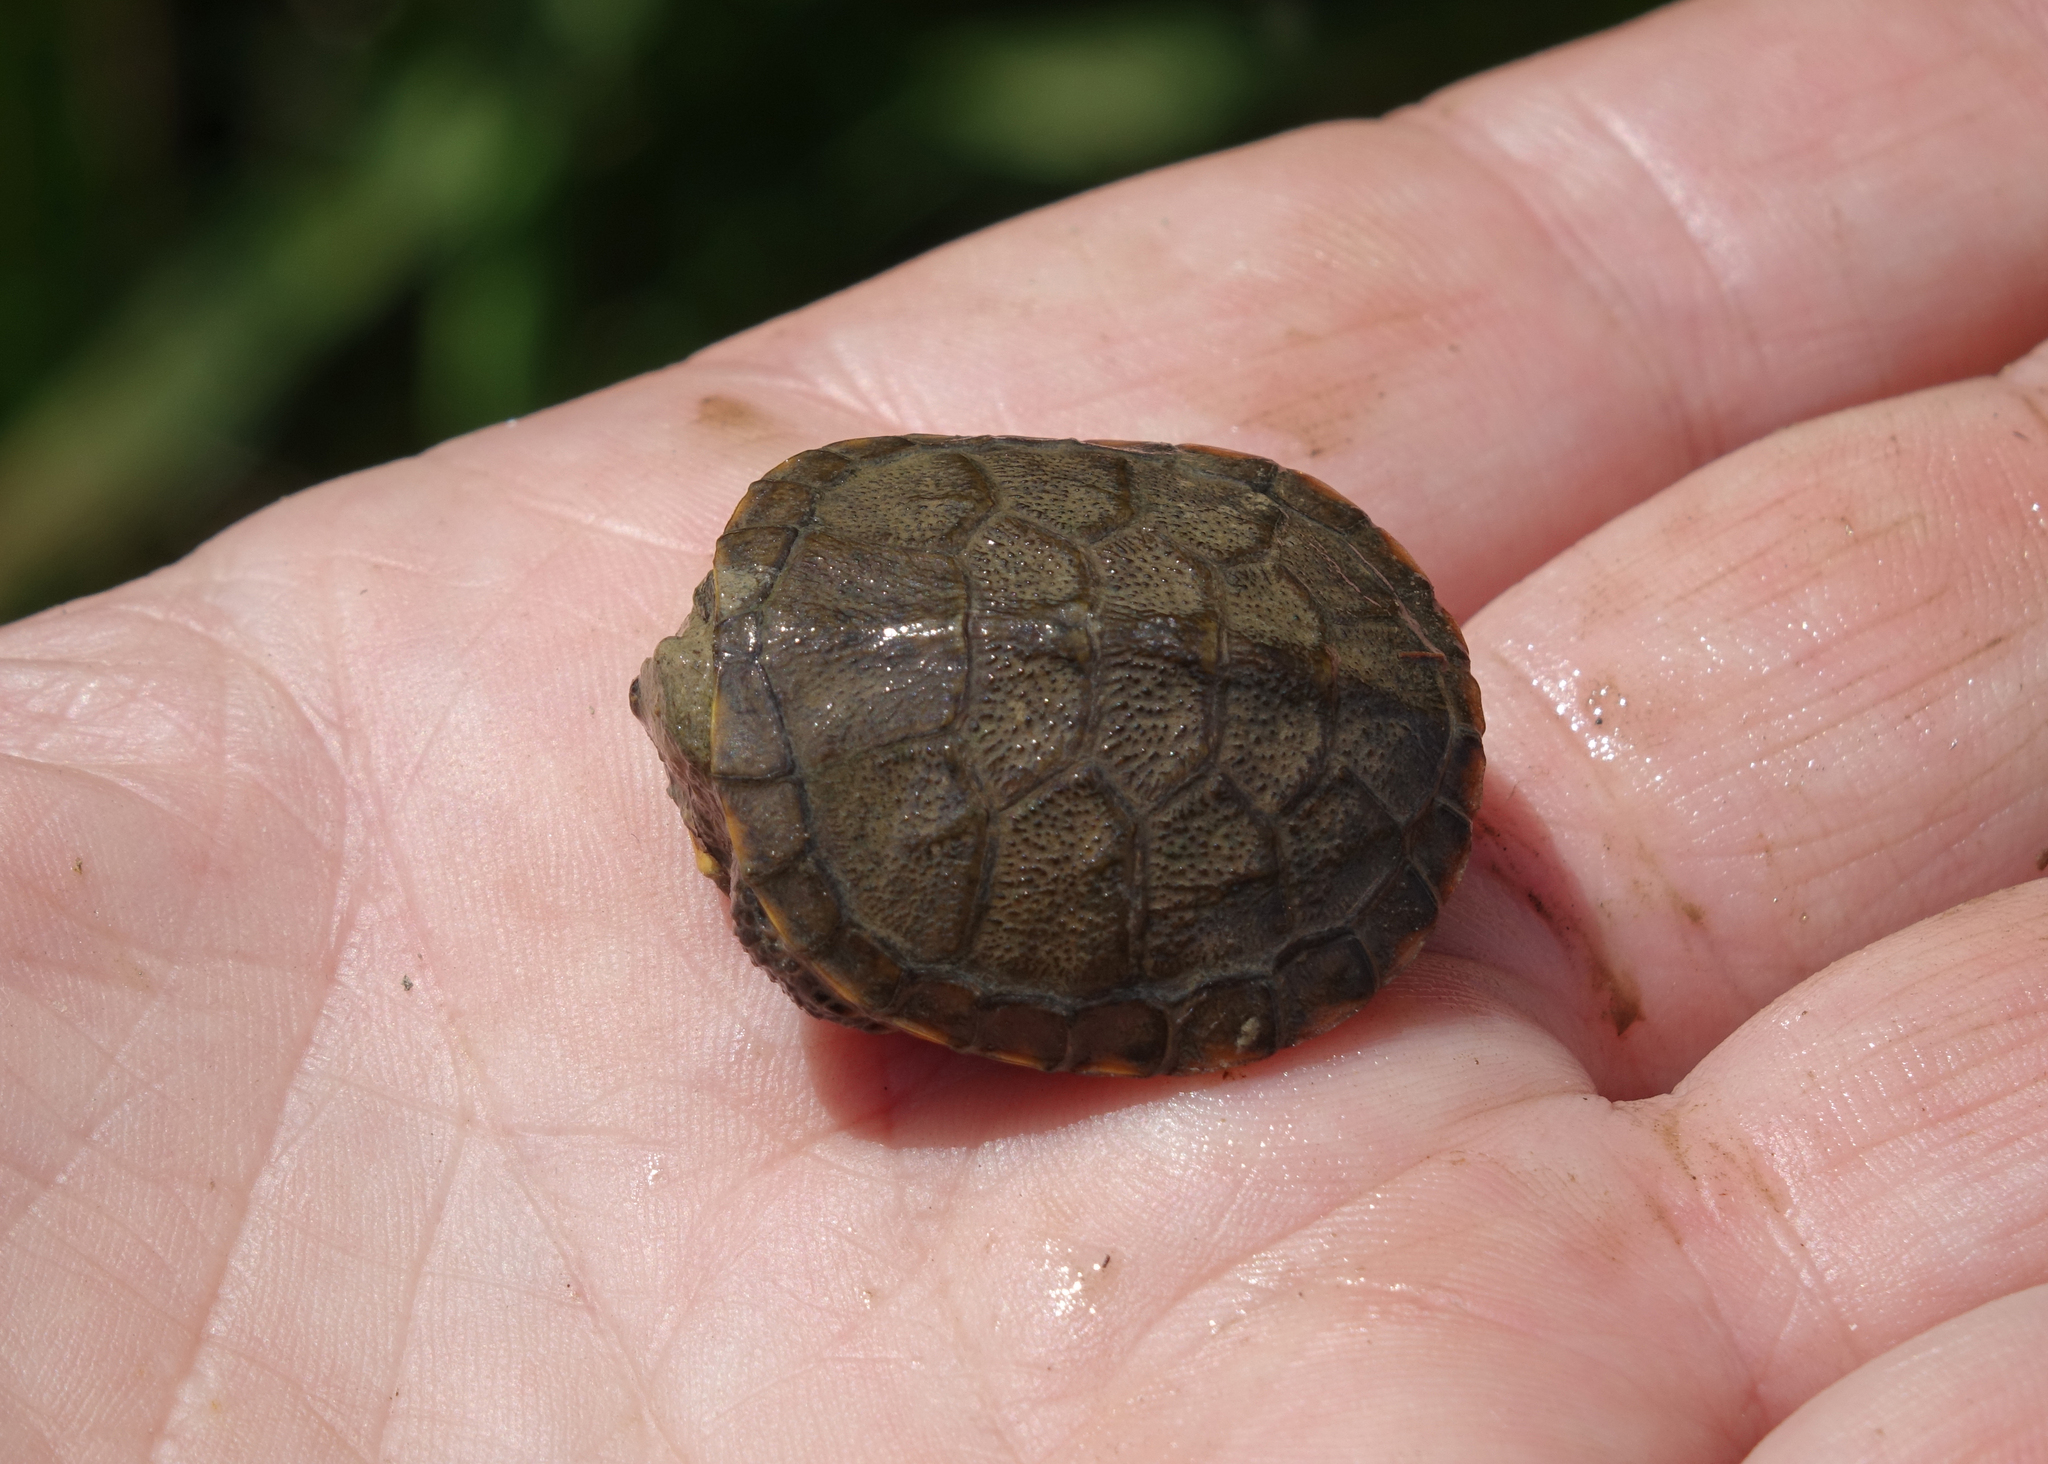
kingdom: Animalia
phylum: Chordata
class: Testudines
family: Emydidae
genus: Emys
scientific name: Emys orbicularis
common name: European pond turtle
